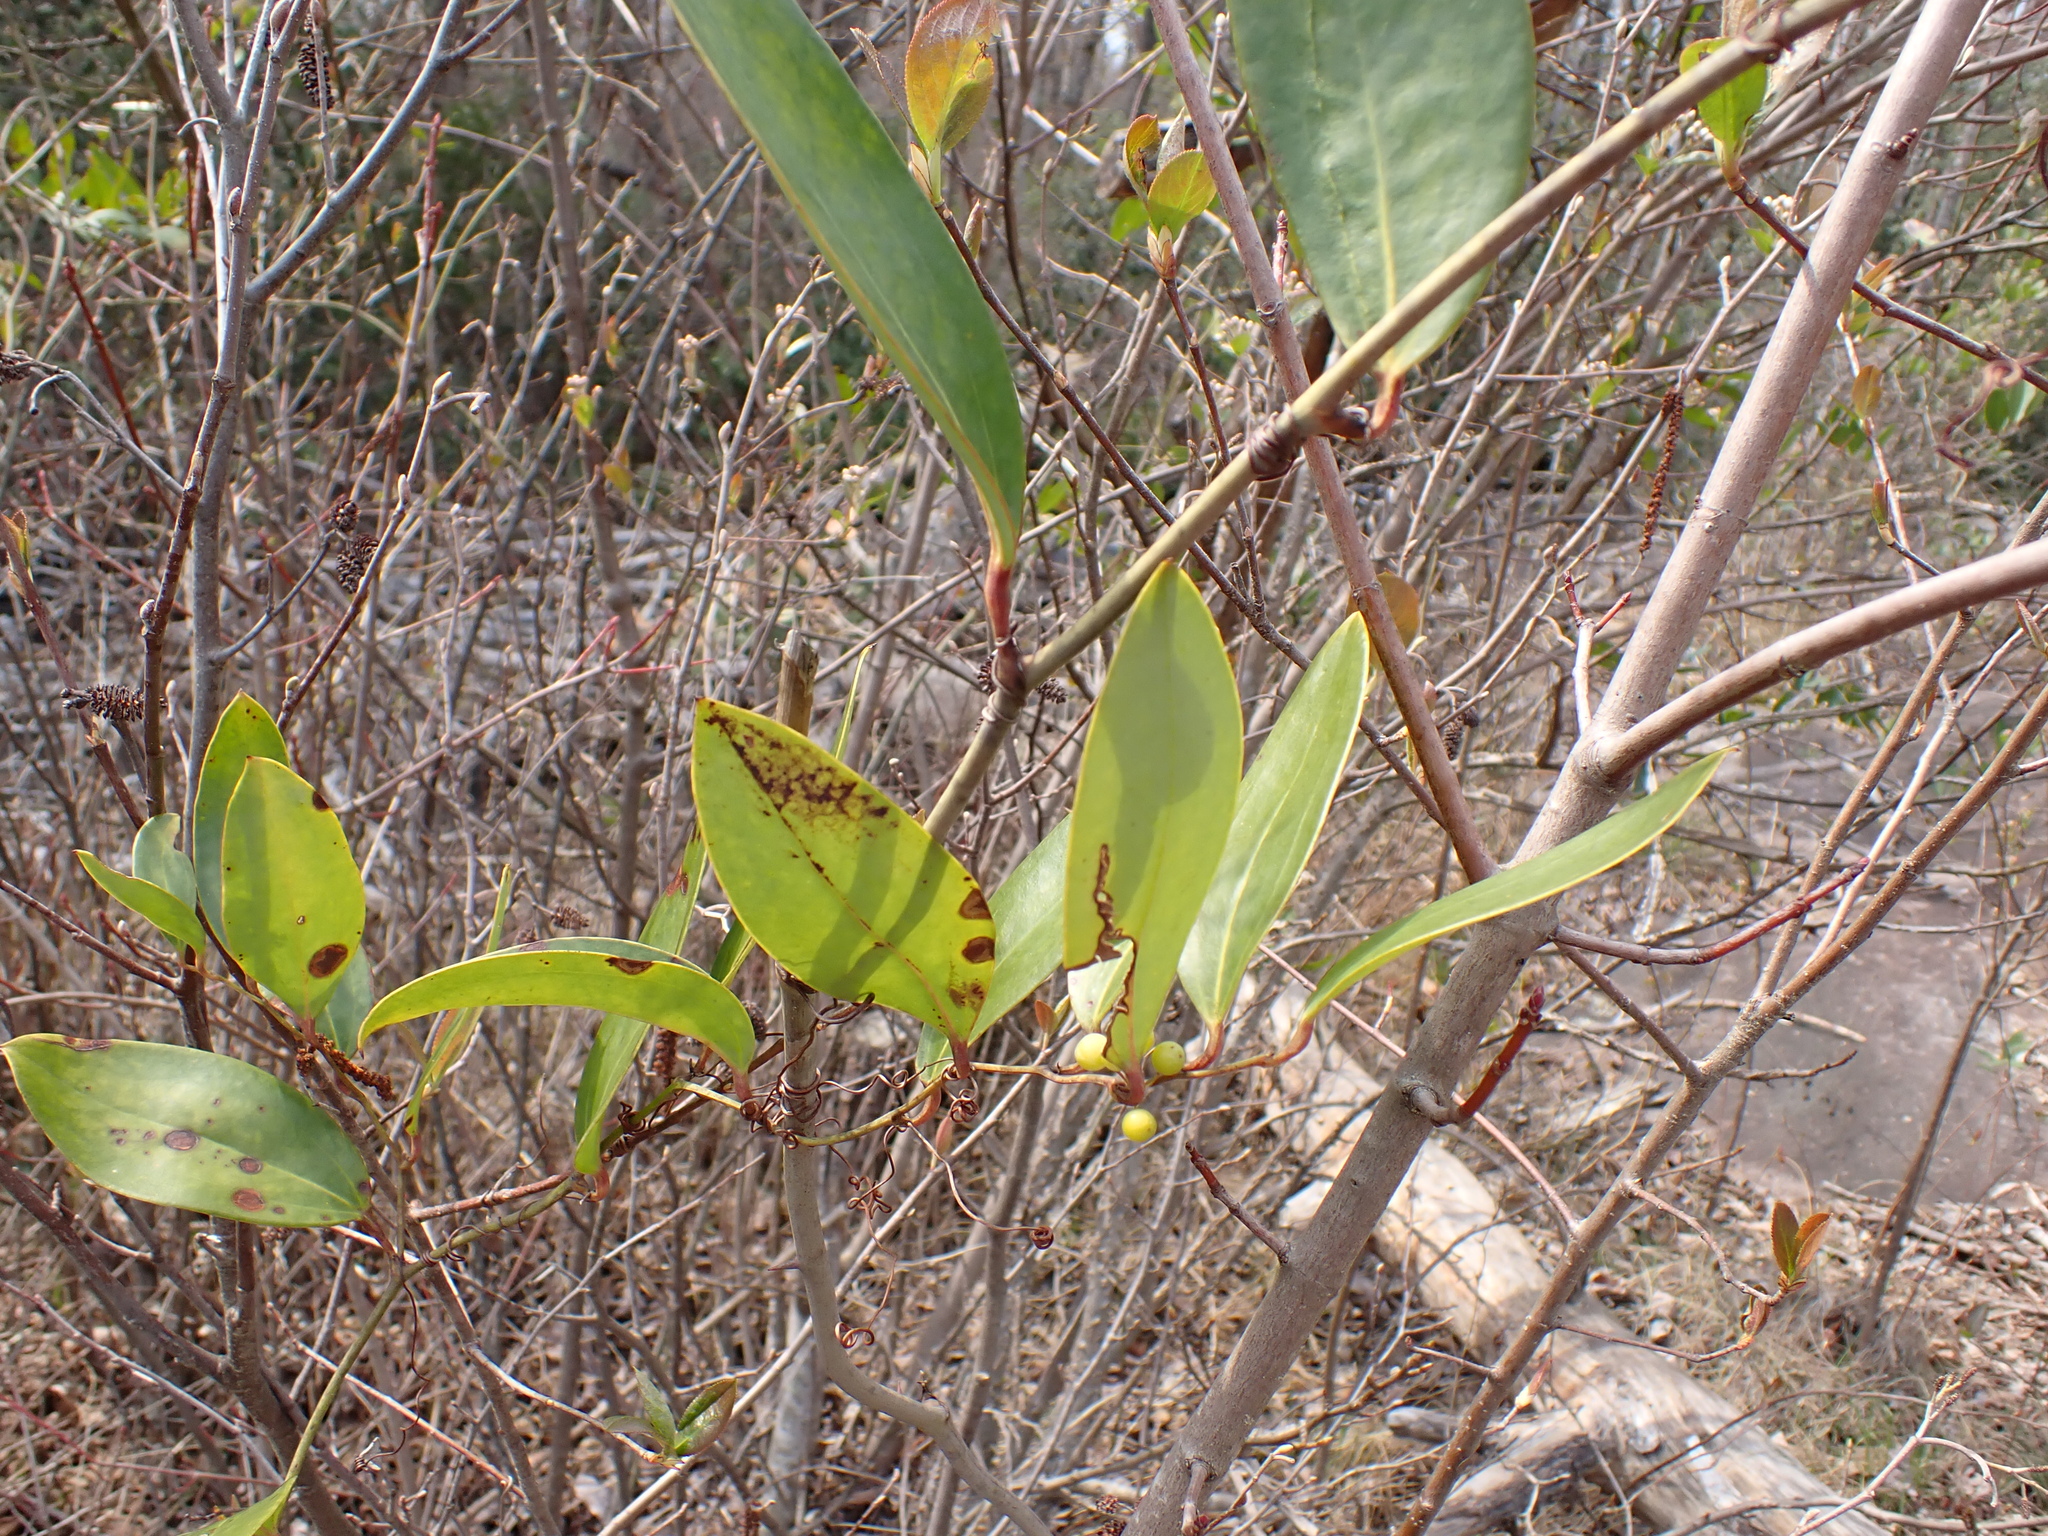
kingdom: Plantae
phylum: Tracheophyta
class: Liliopsida
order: Liliales
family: Smilacaceae
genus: Smilax
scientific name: Smilax laurifolia
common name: Bamboovine
